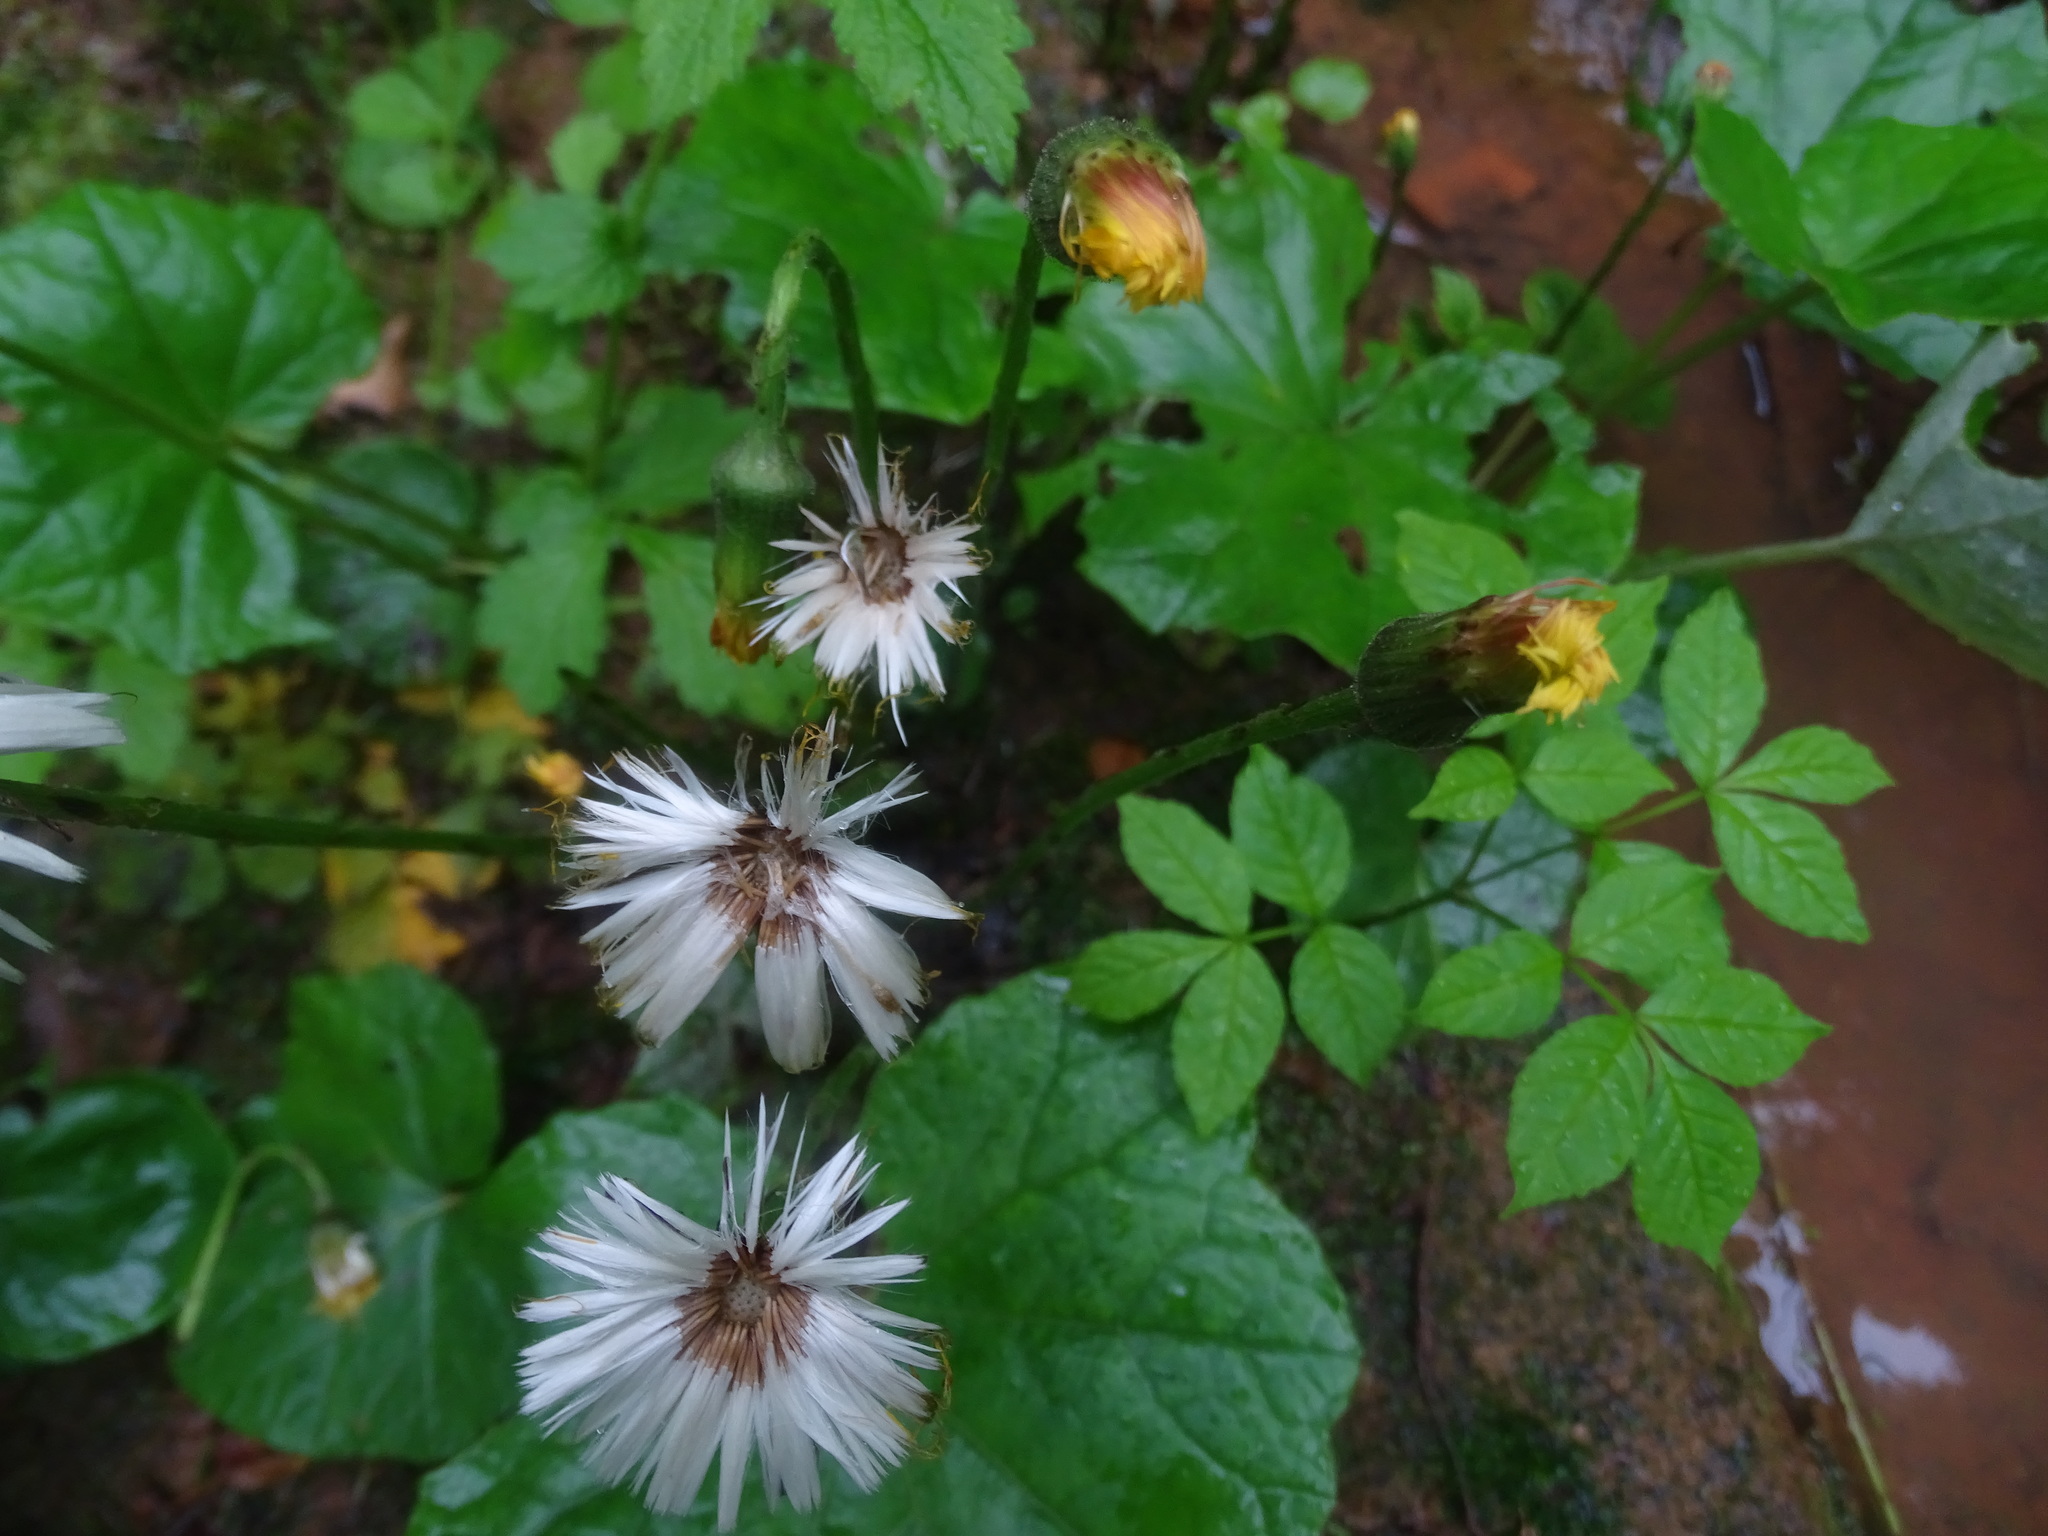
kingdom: Plantae
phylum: Tracheophyta
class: Magnoliopsida
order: Asterales
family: Asteraceae
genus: Tussilago
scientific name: Tussilago farfara
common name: Coltsfoot
